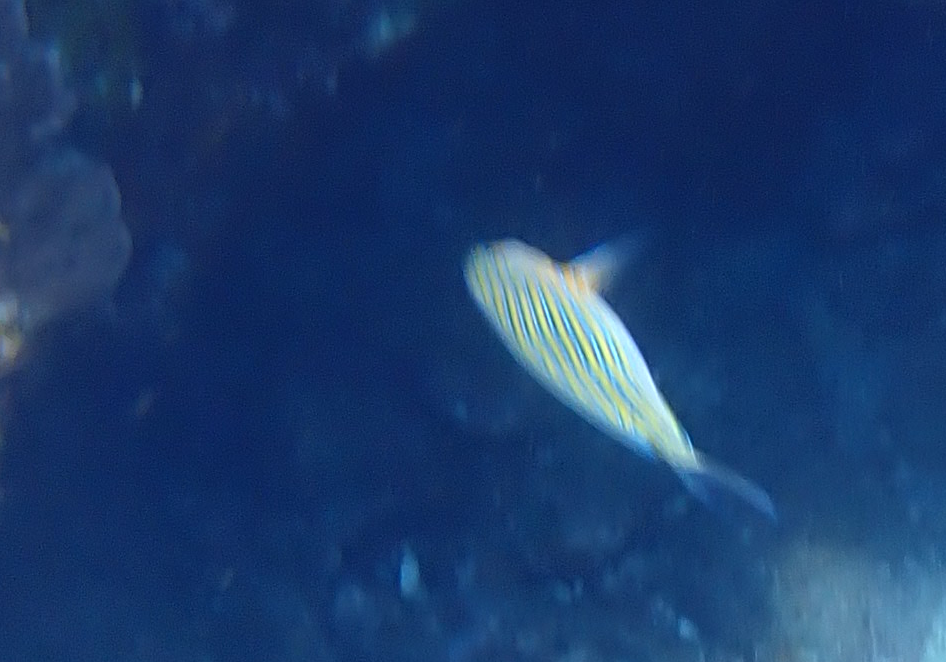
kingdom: Animalia
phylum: Chordata
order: Perciformes
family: Acanthuridae
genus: Acanthurus
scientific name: Acanthurus lineatus
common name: Striped surgeonfish
